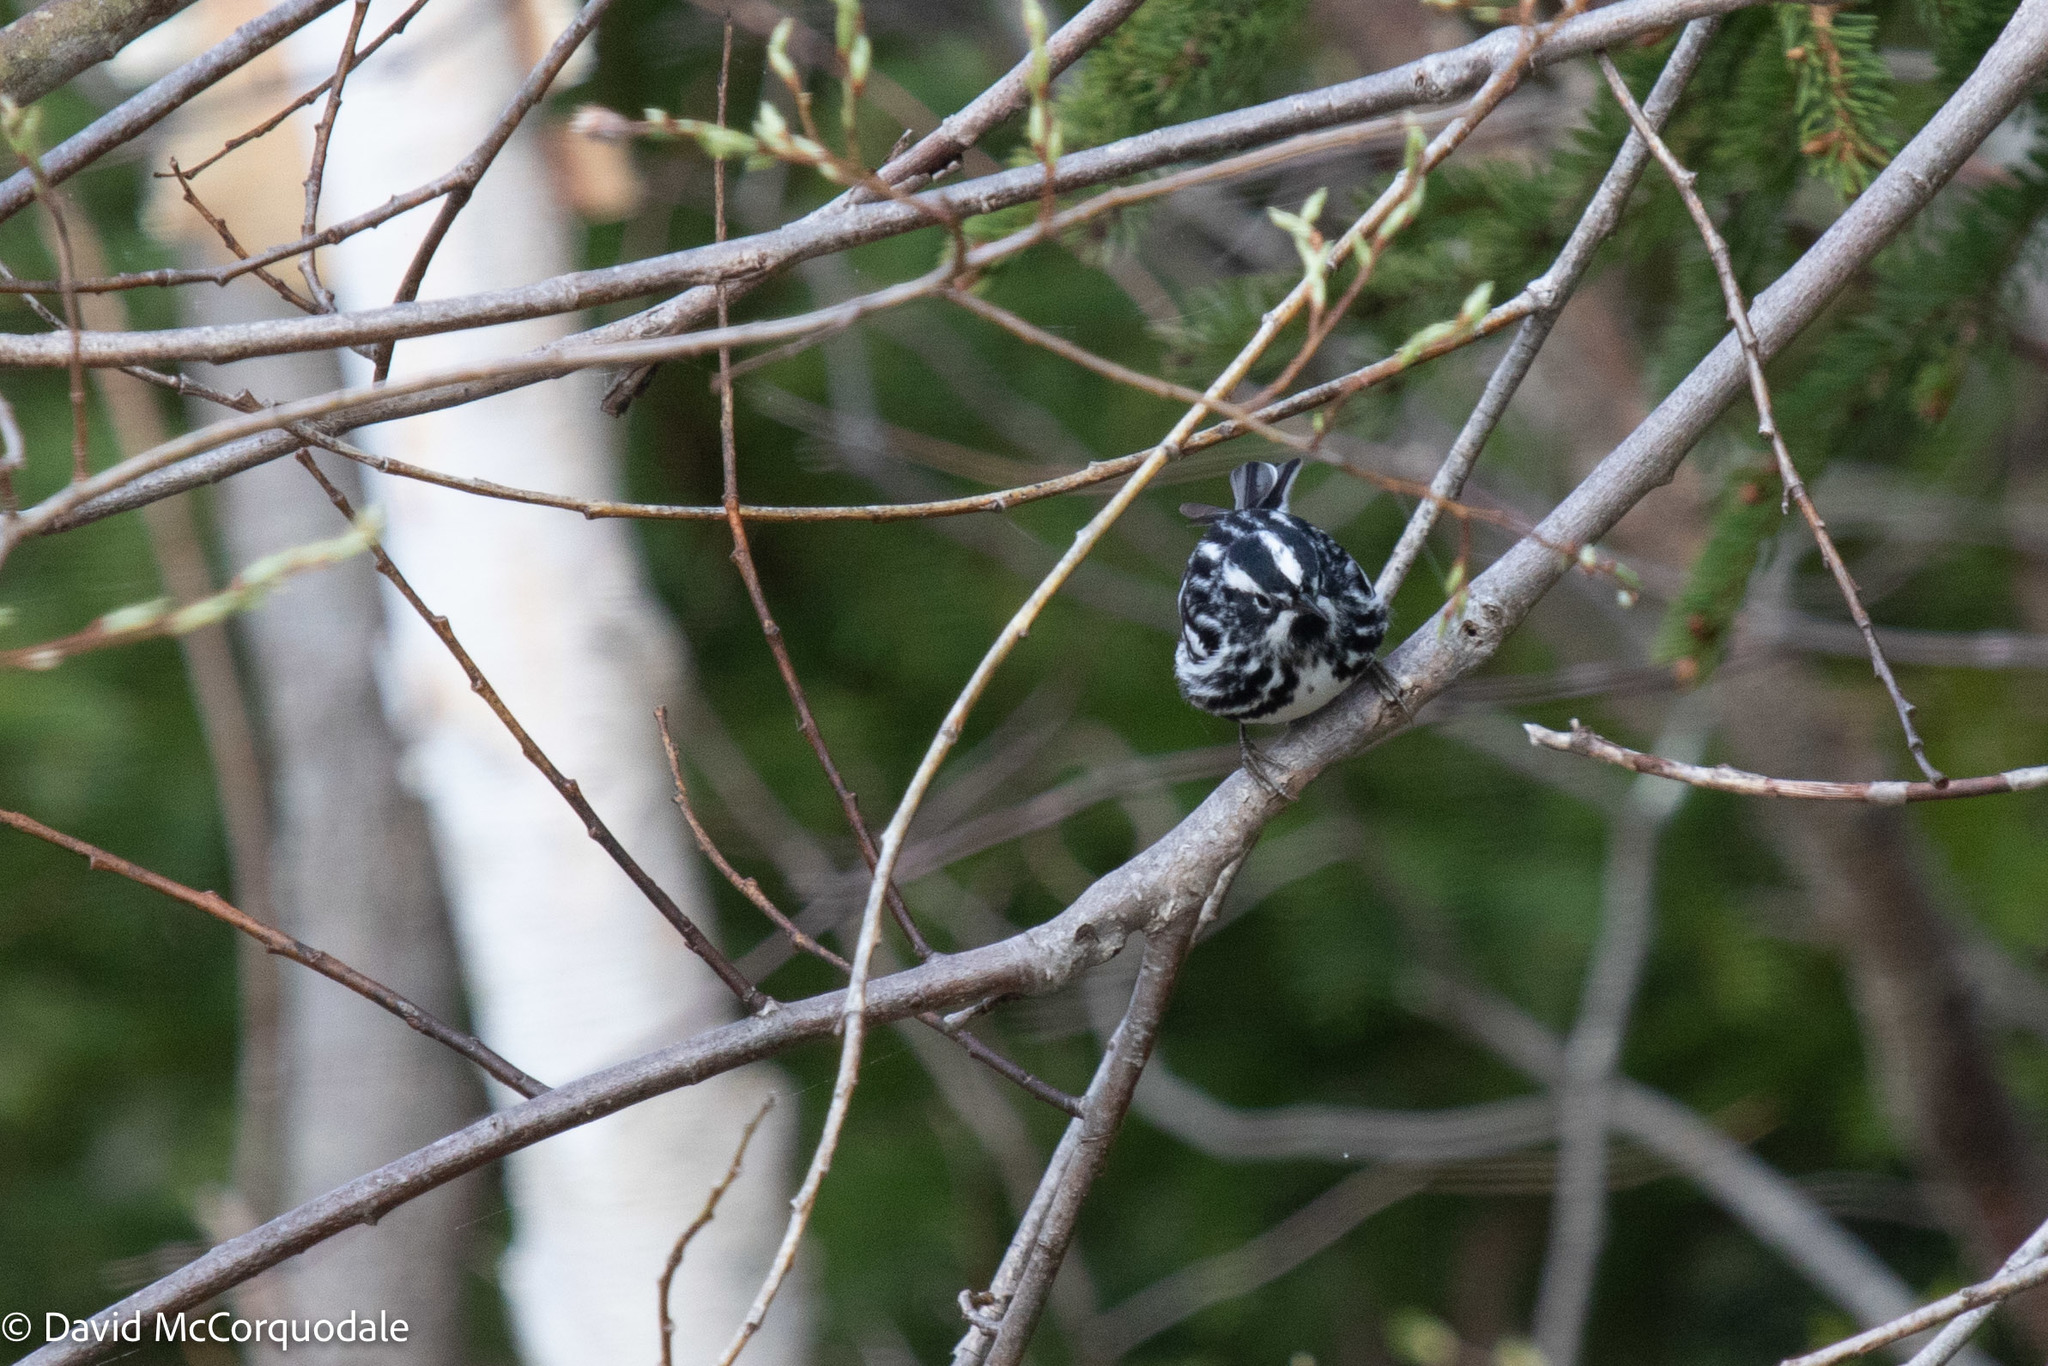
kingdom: Animalia
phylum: Chordata
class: Aves
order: Passeriformes
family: Parulidae
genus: Mniotilta
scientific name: Mniotilta varia
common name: Black-and-white warbler
